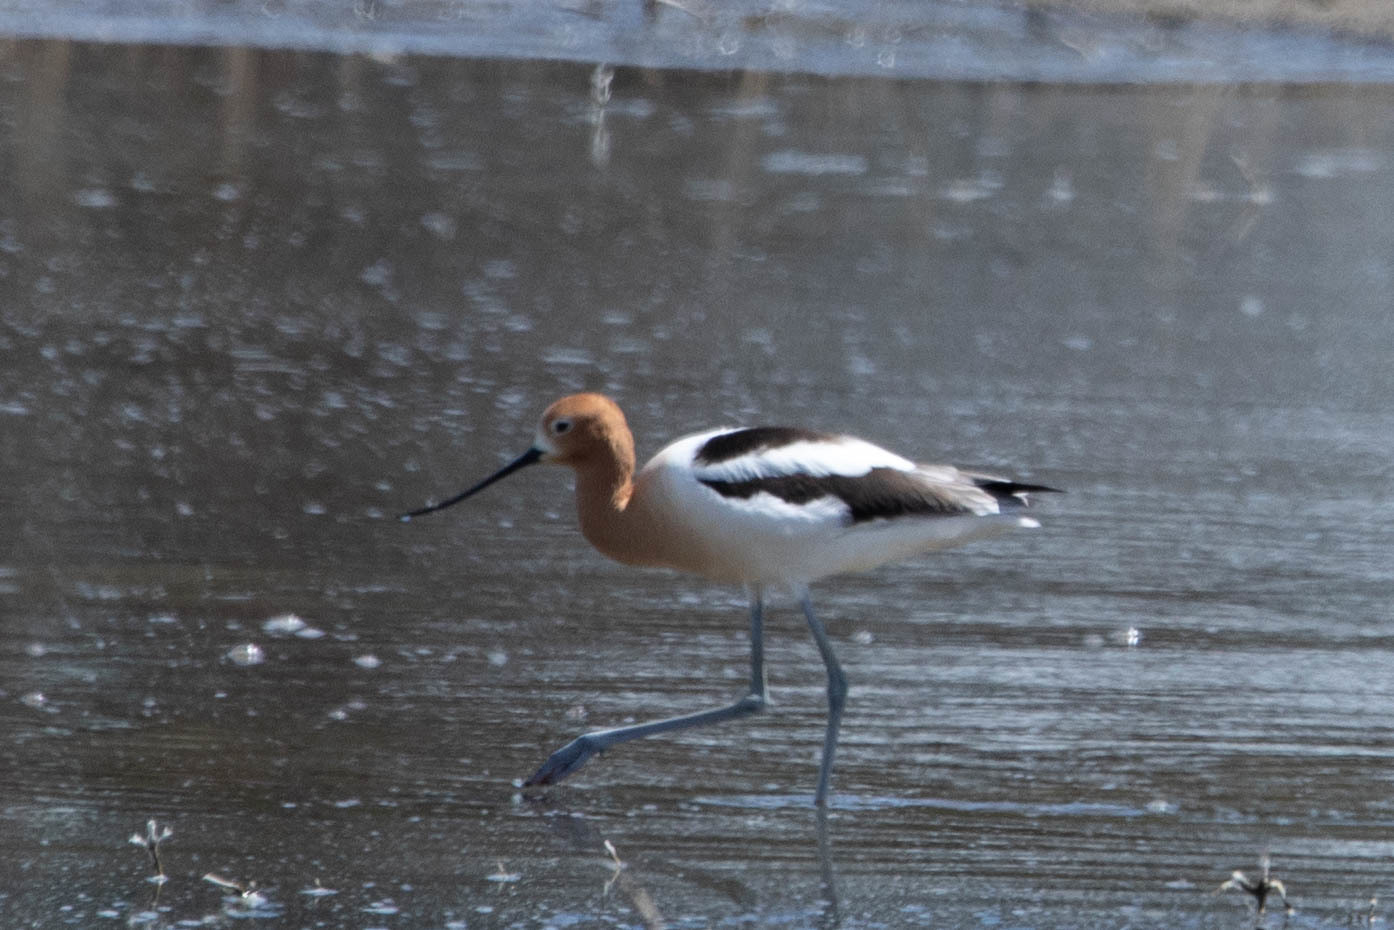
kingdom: Animalia
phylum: Chordata
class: Aves
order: Charadriiformes
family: Recurvirostridae
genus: Recurvirostra
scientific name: Recurvirostra americana
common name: American avocet
